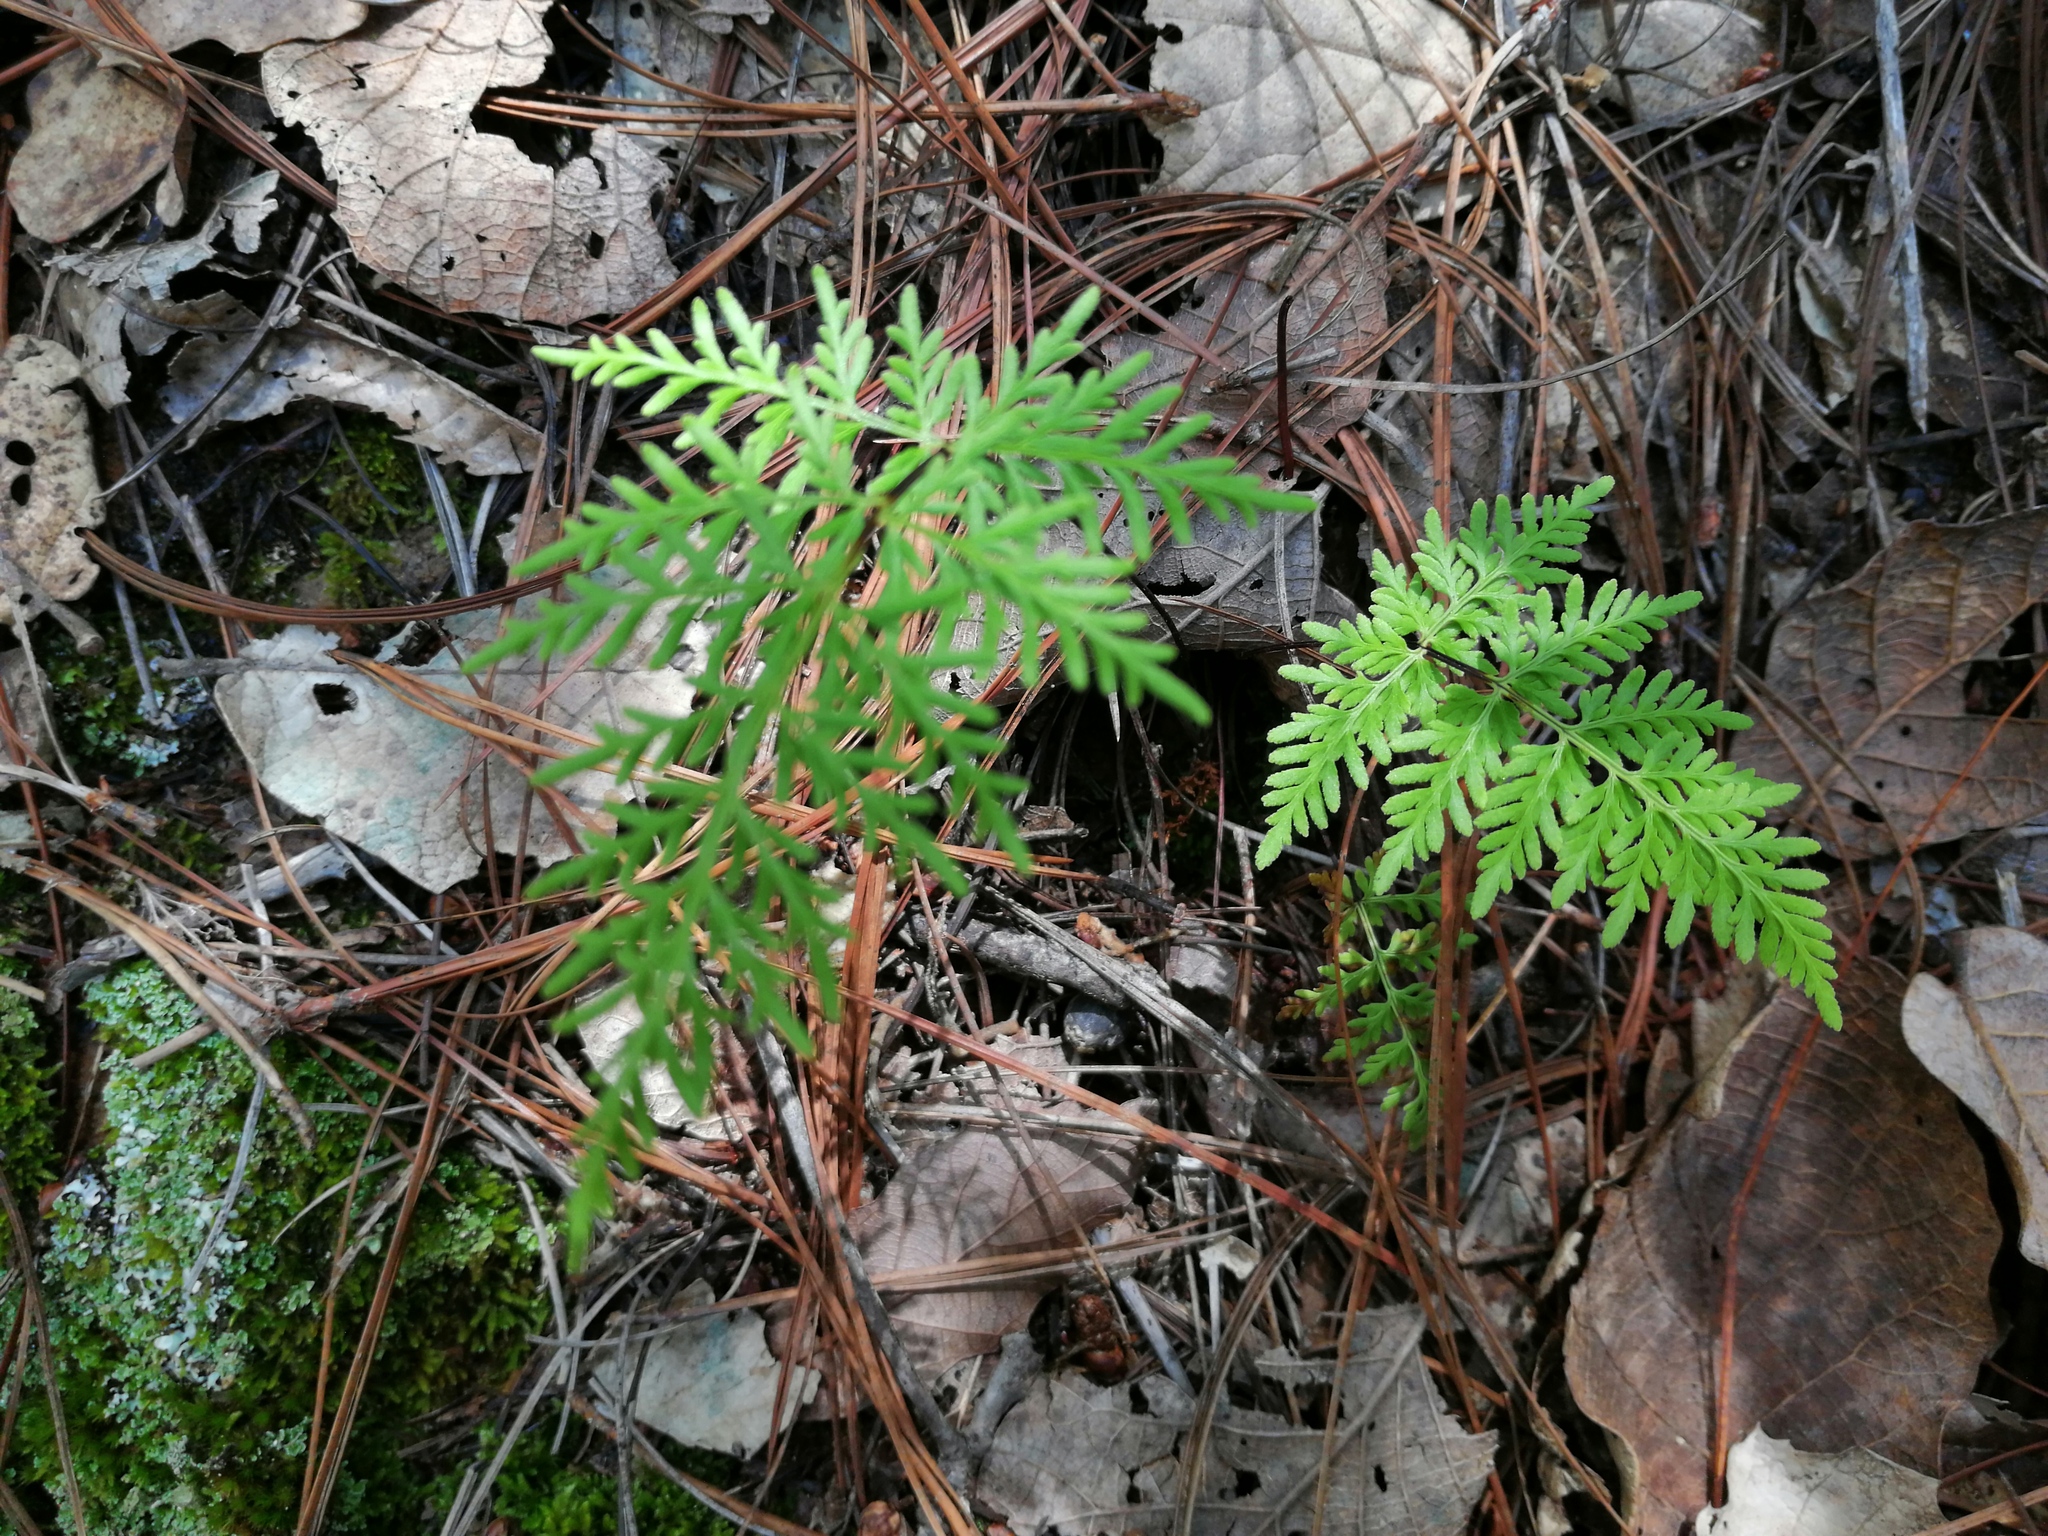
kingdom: Plantae
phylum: Tracheophyta
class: Polypodiopsida
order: Polypodiales
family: Pteridaceae
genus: Gaga
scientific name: Gaga marginata
